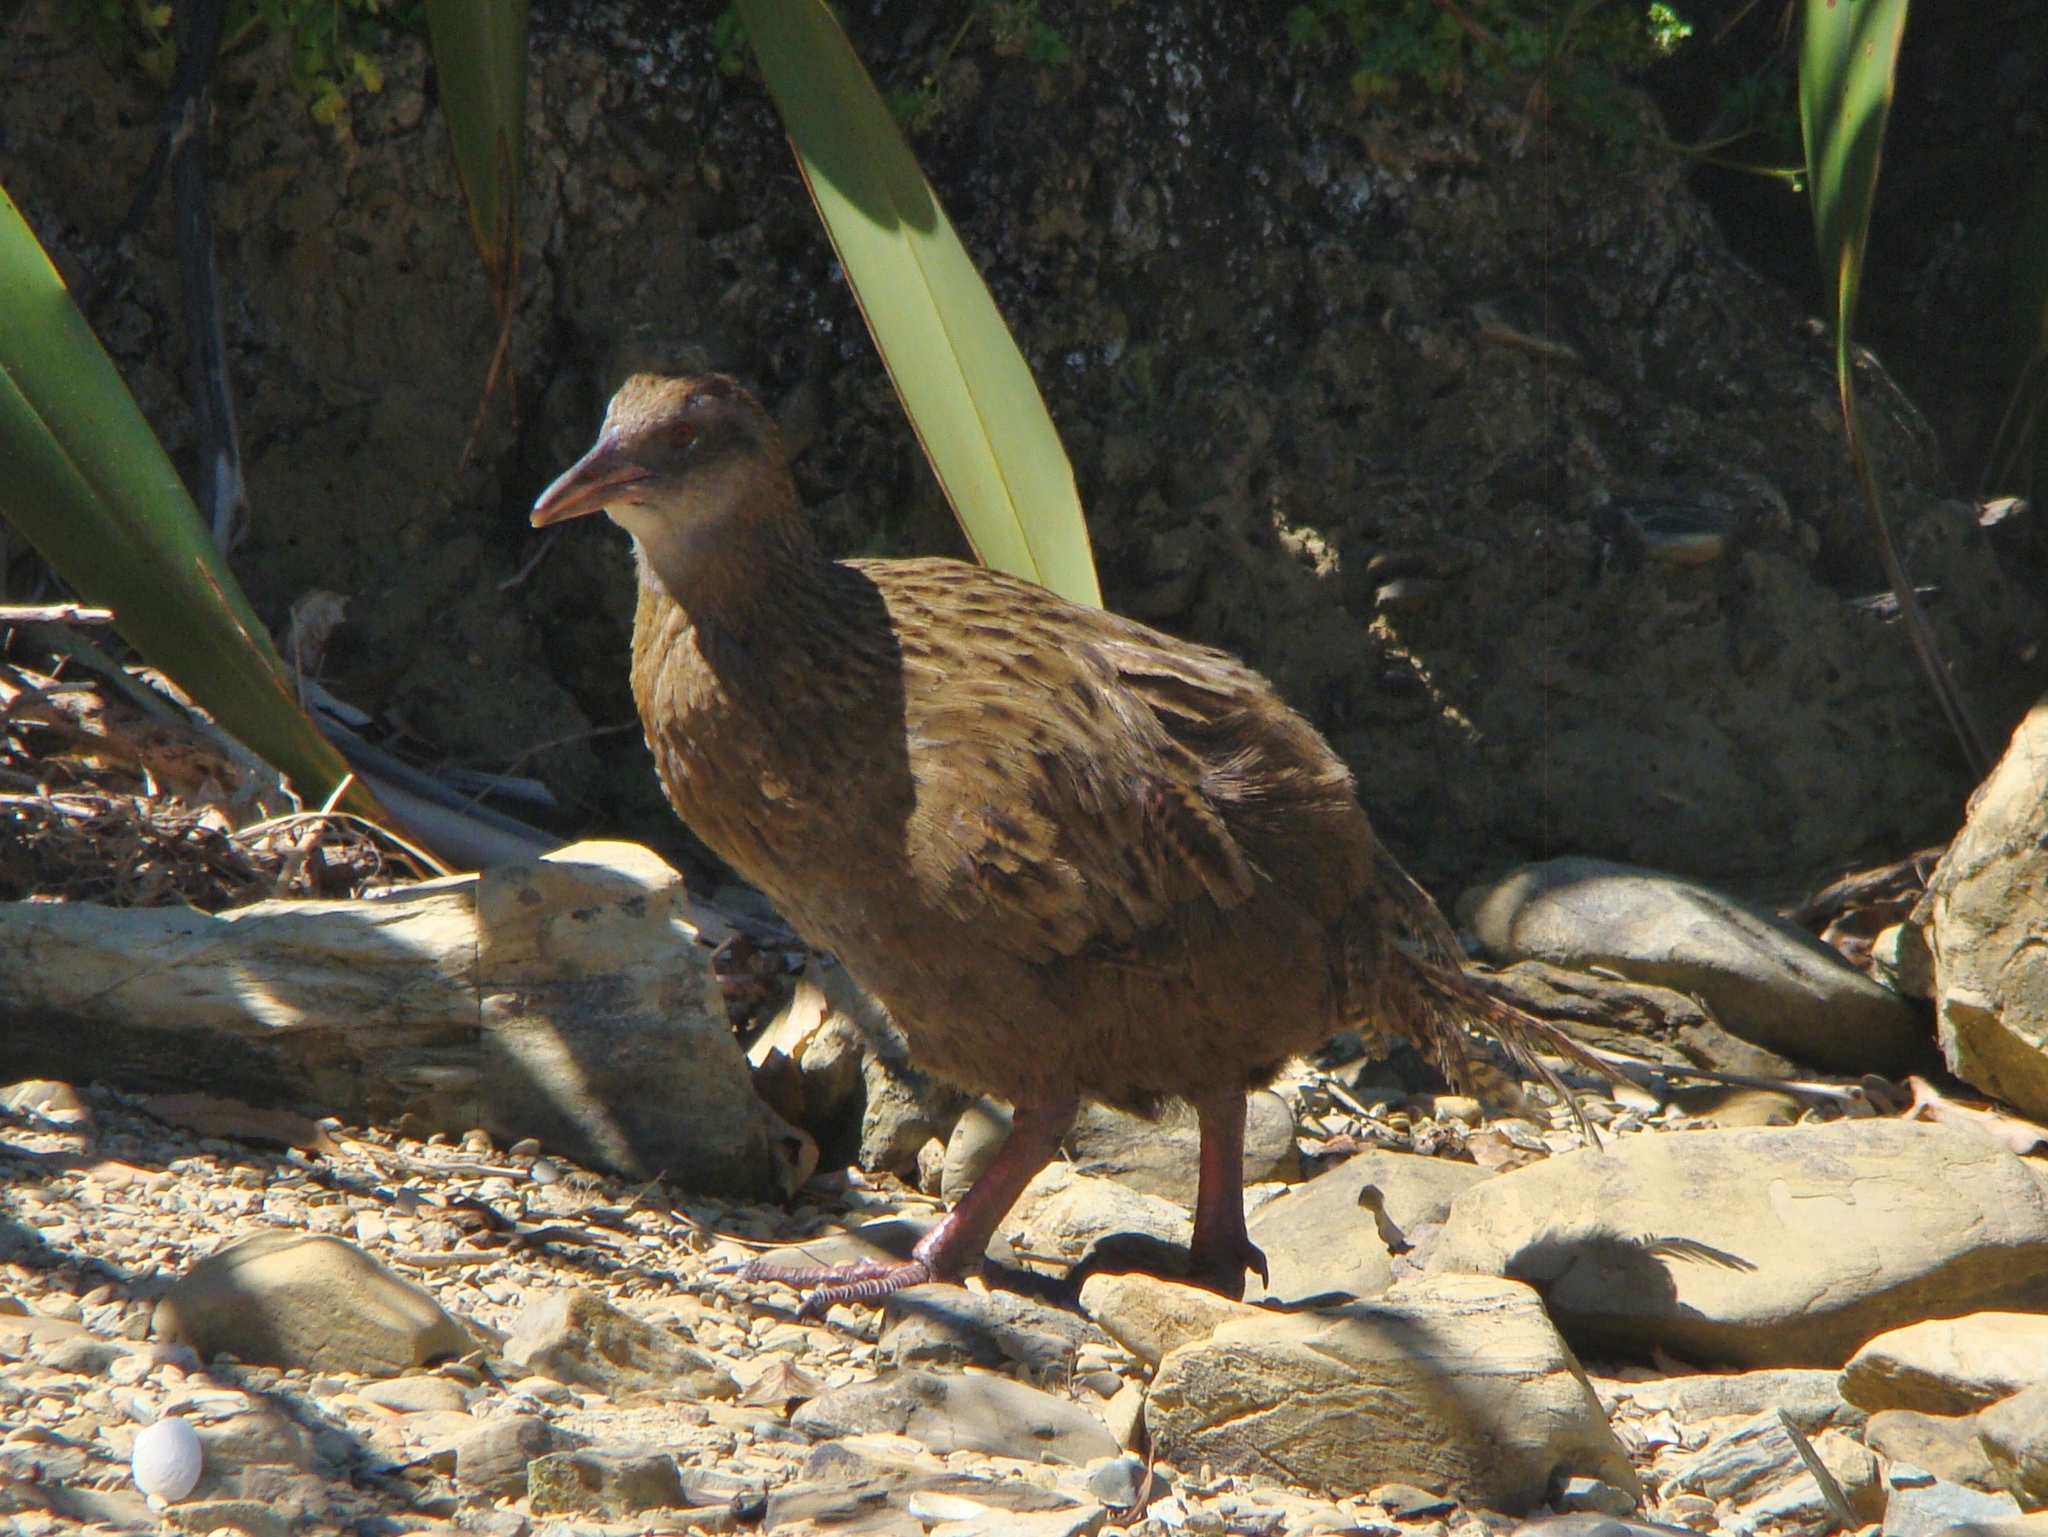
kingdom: Animalia
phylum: Chordata
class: Aves
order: Gruiformes
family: Rallidae
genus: Gallirallus
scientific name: Gallirallus australis
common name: Weka
